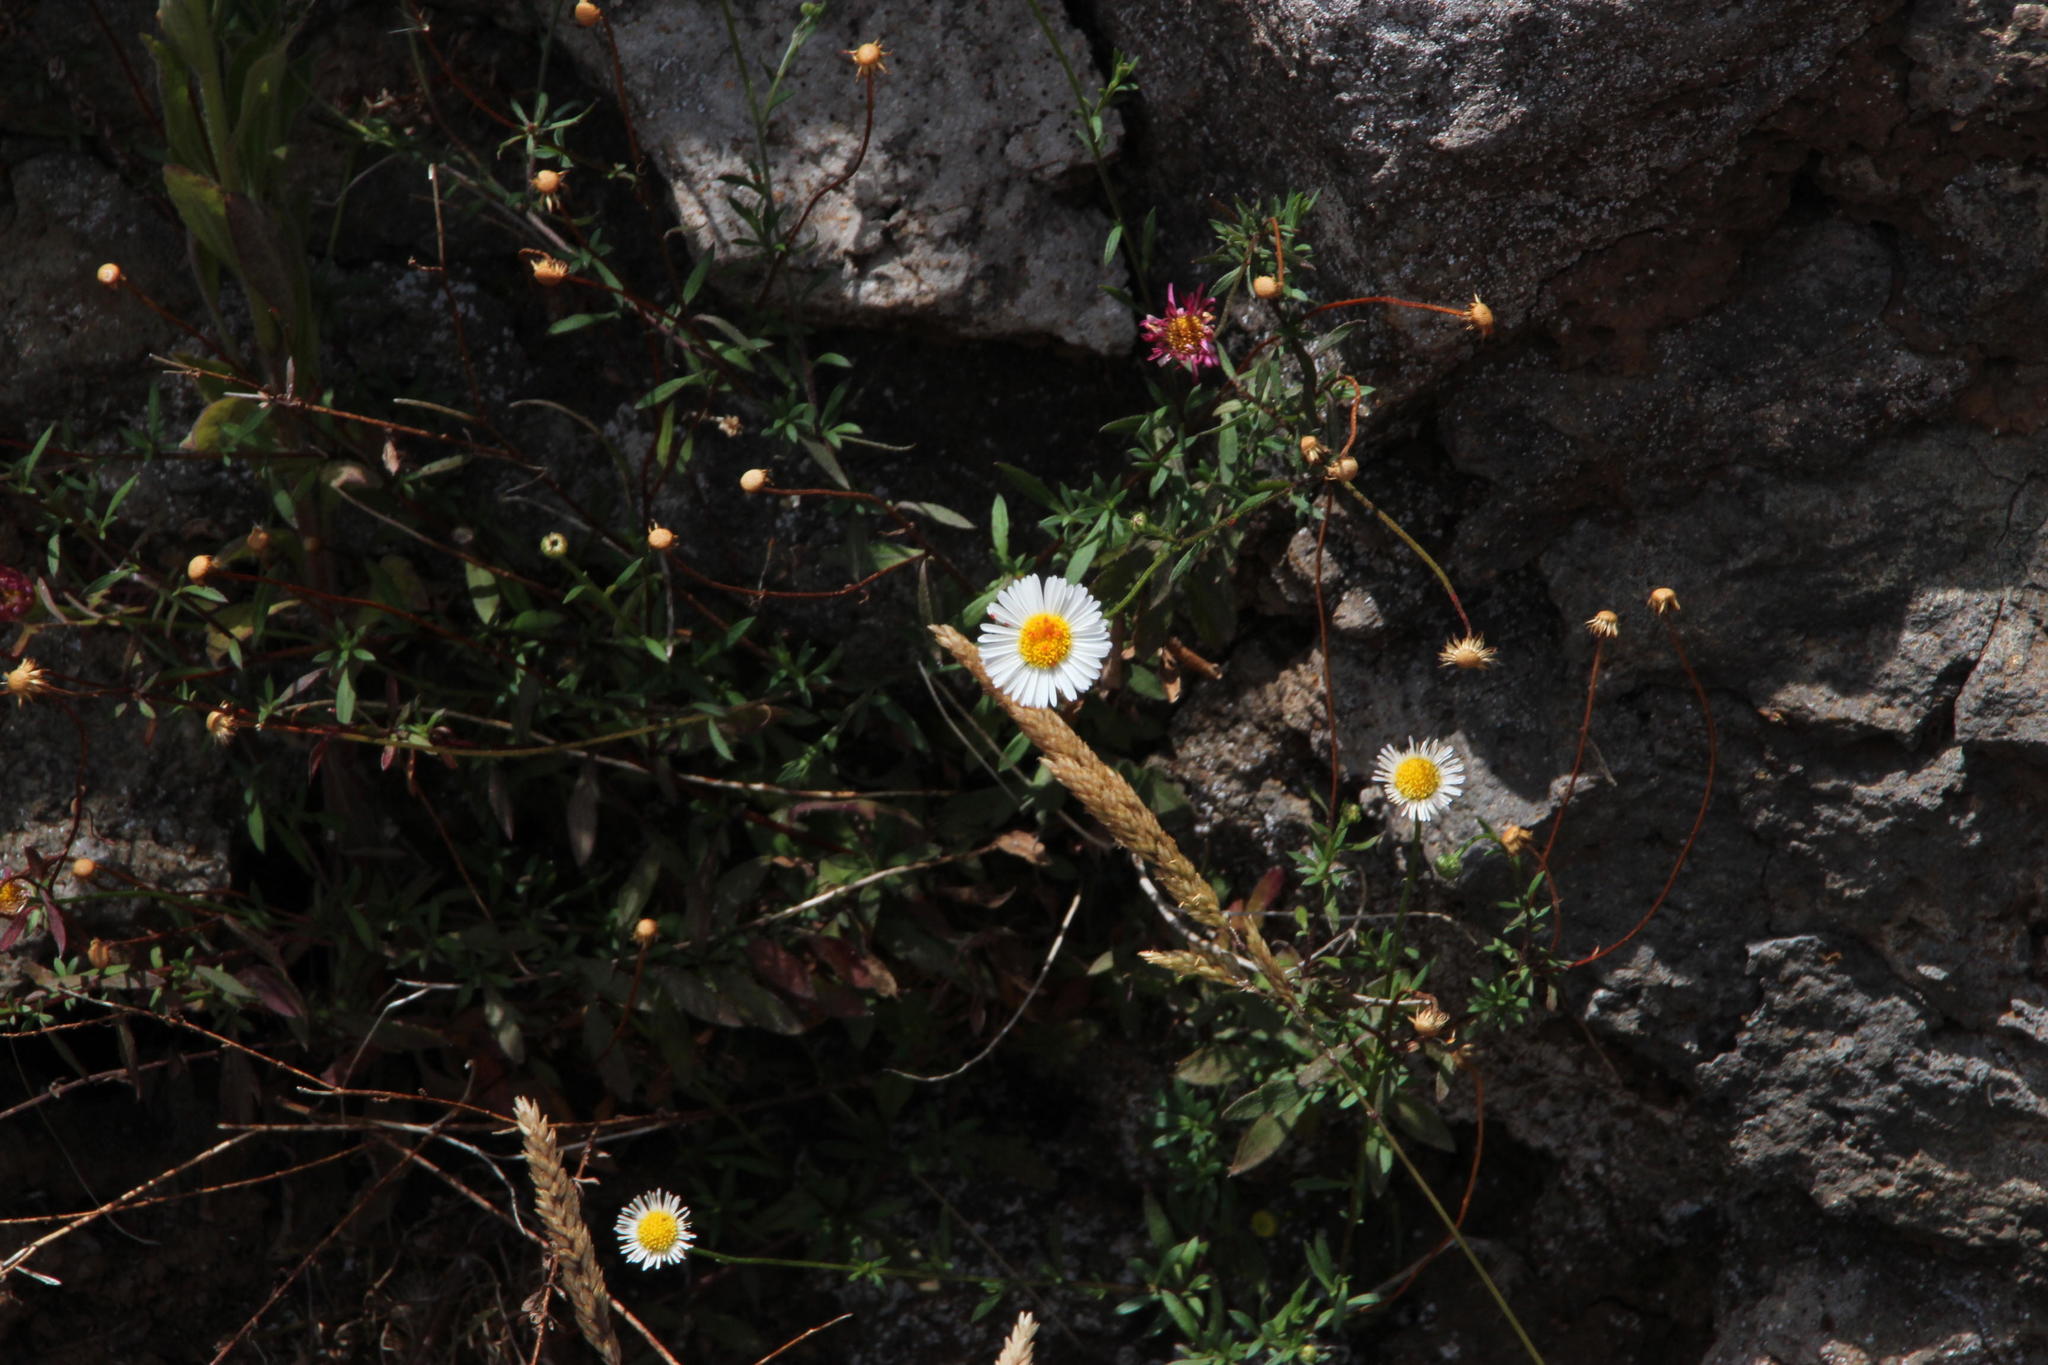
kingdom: Plantae
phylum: Tracheophyta
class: Magnoliopsida
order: Asterales
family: Asteraceae
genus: Erigeron
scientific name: Erigeron karvinskianus
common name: Mexican fleabane
